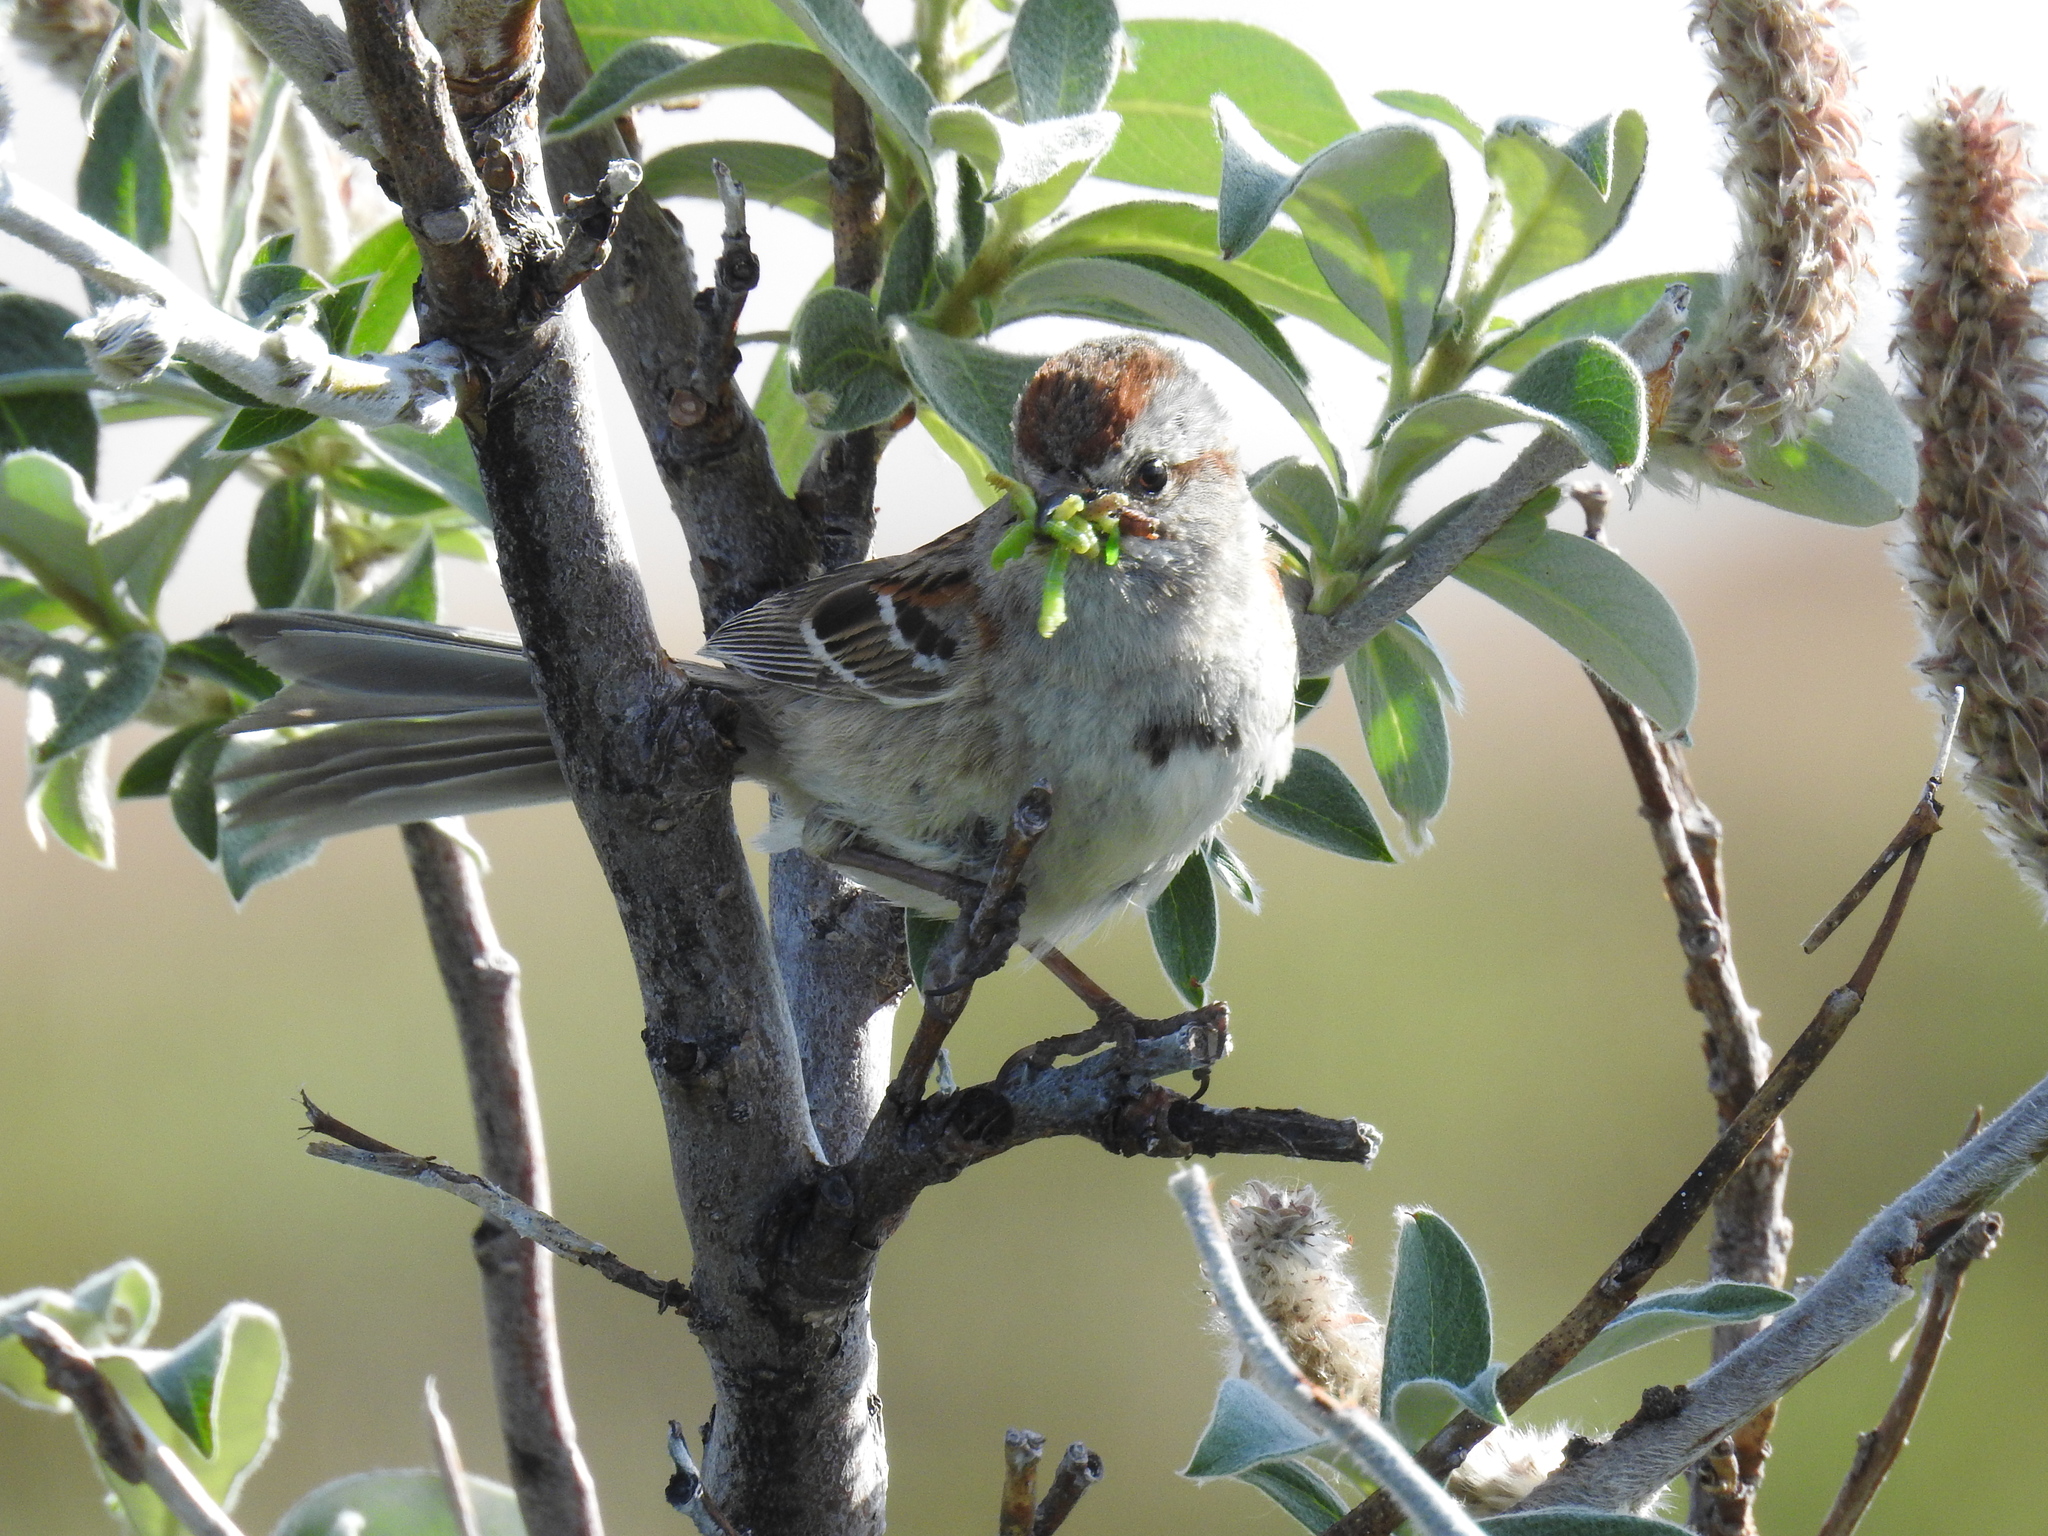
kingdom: Animalia
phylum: Chordata
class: Aves
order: Passeriformes
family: Passerellidae
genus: Spizelloides
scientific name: Spizelloides arborea
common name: American tree sparrow
